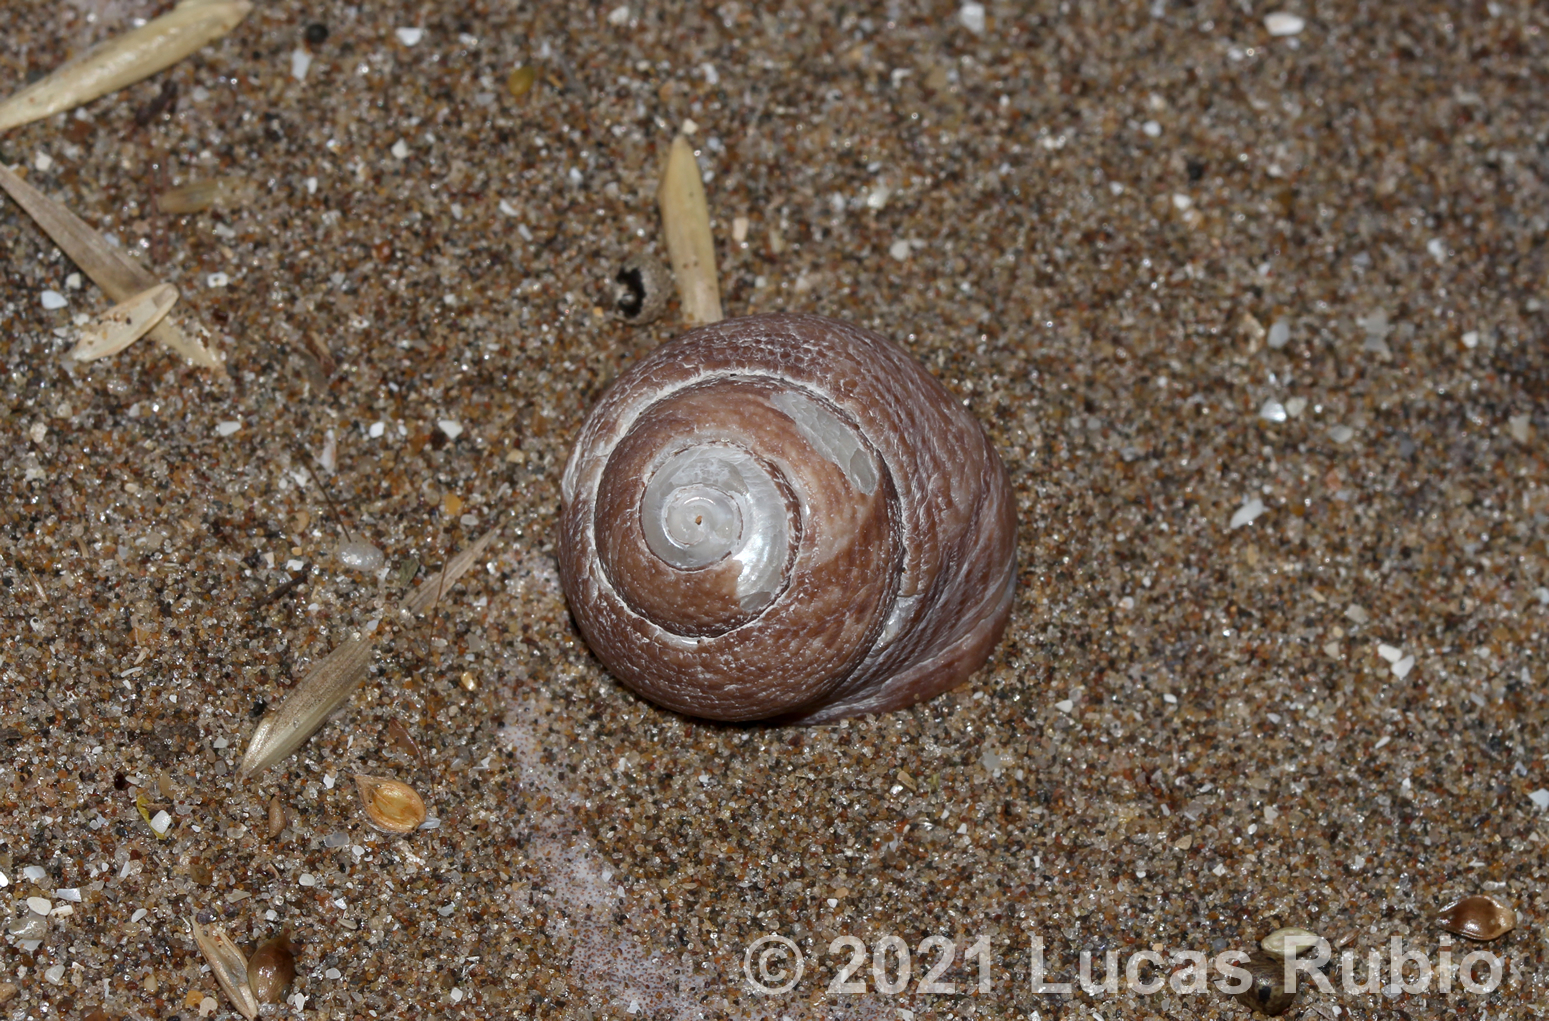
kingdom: Animalia
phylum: Mollusca
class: Gastropoda
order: Trochida
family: Tegulidae
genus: Tegula
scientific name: Tegula patagonica
